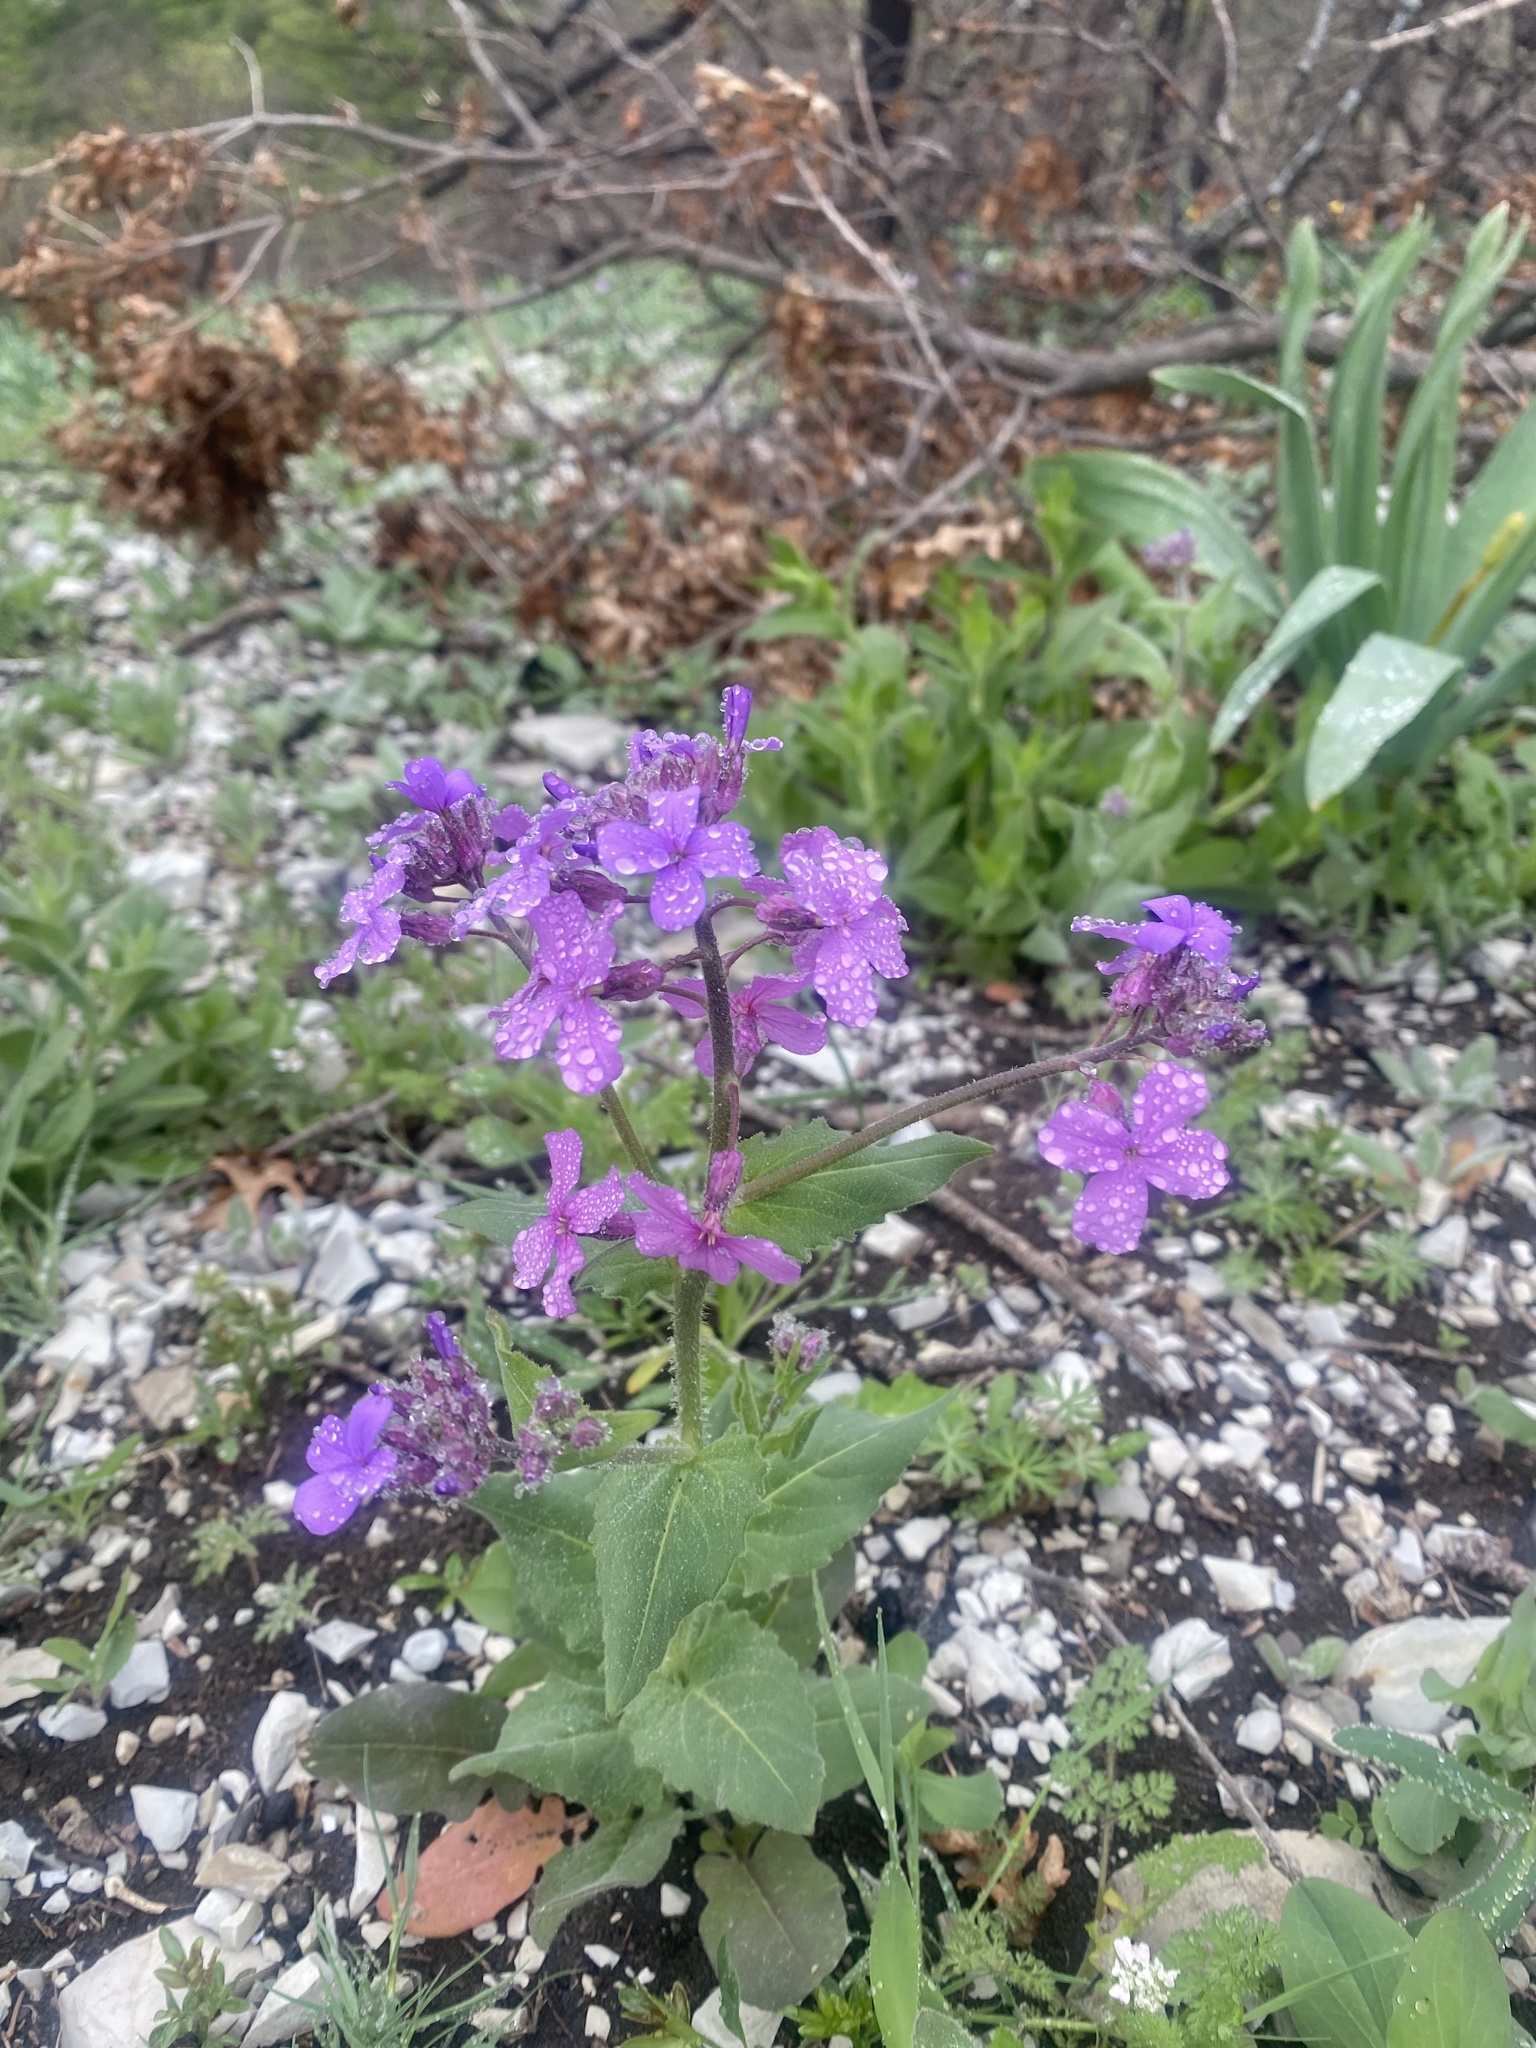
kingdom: Plantae
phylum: Tracheophyta
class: Magnoliopsida
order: Brassicales
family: Brassicaceae
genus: Hesperis
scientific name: Hesperis matronalis
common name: Dame's-violet
